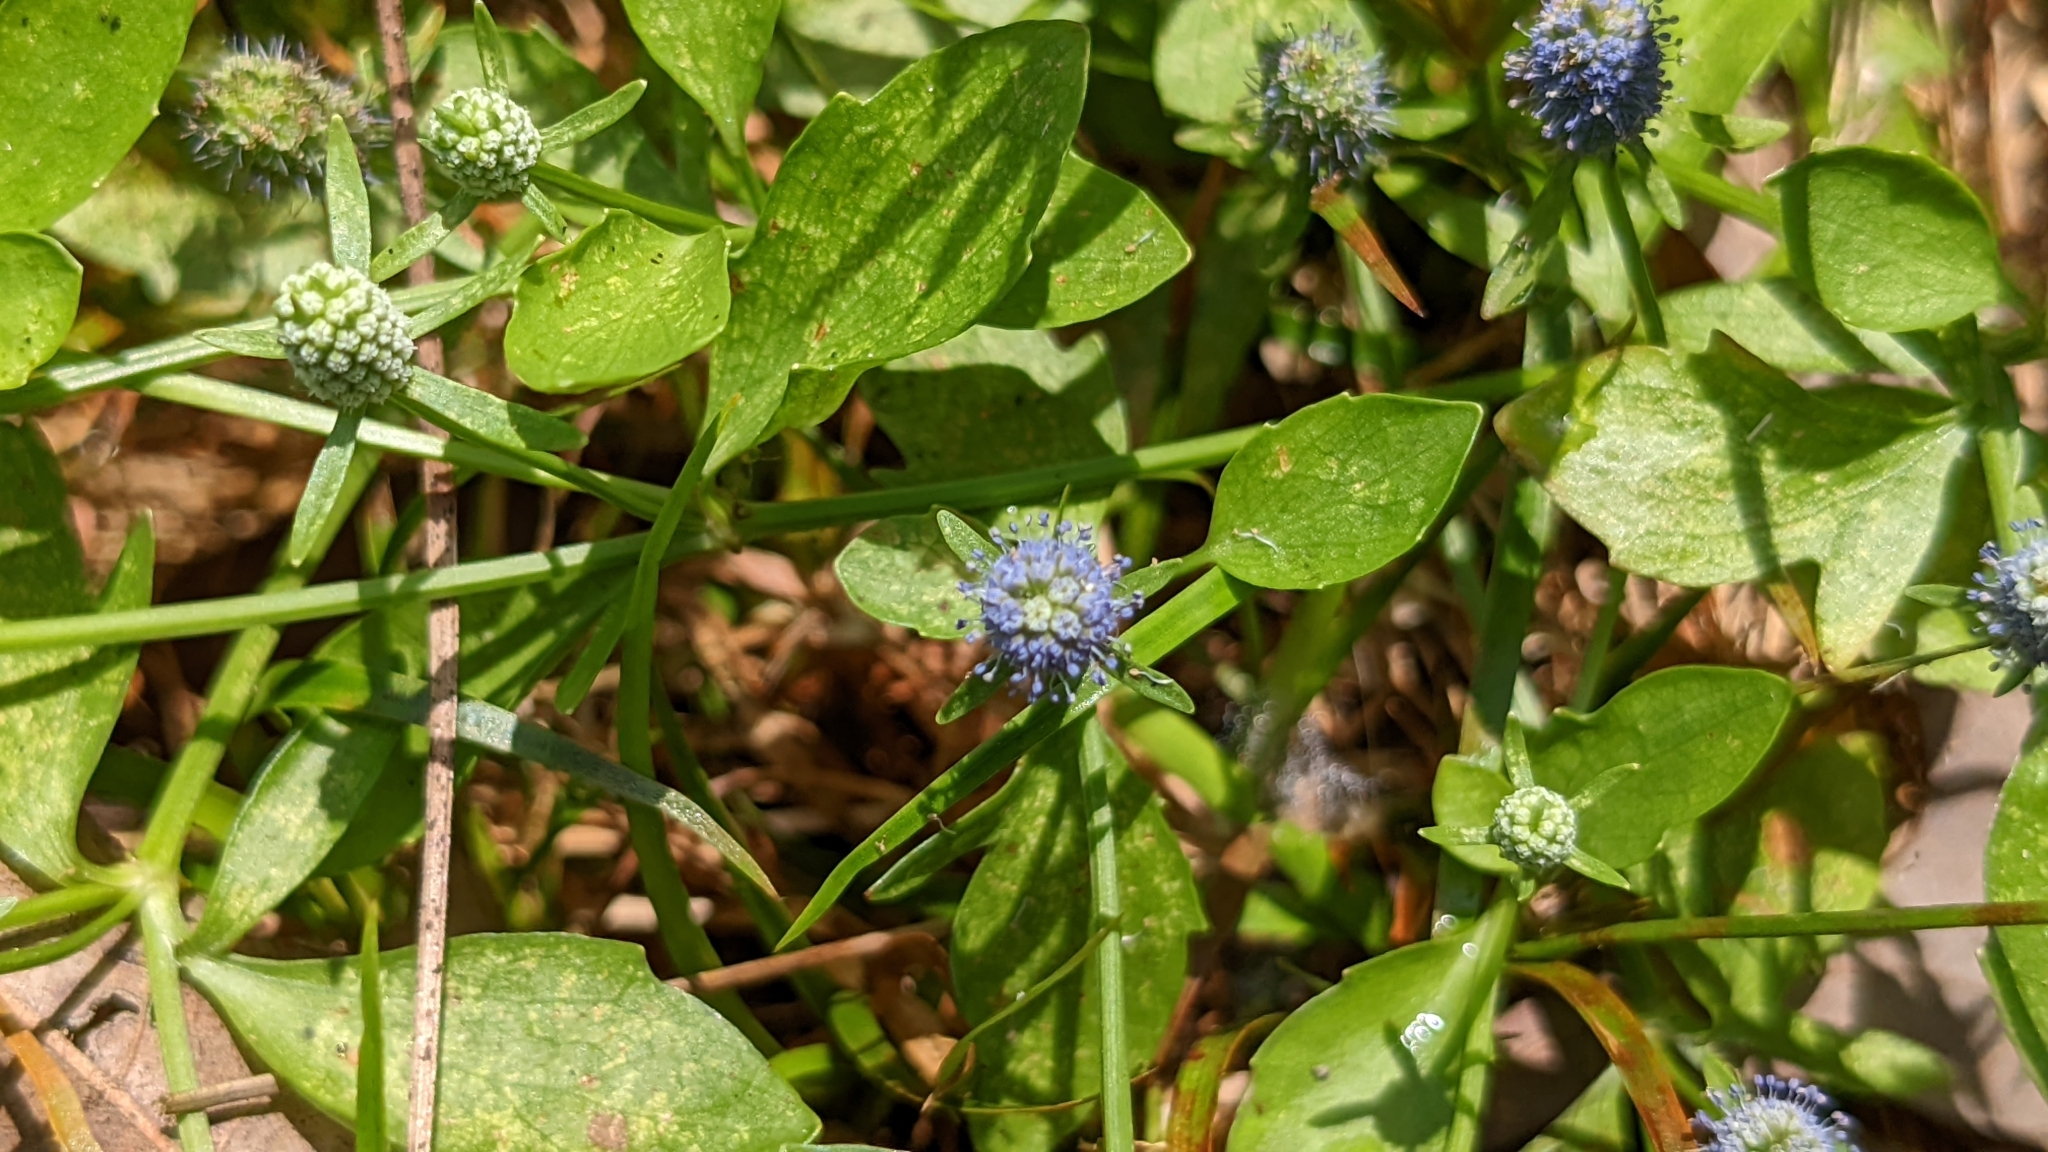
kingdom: Plantae
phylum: Tracheophyta
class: Magnoliopsida
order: Apiales
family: Apiaceae
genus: Eryngium
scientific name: Eryngium prostratum
